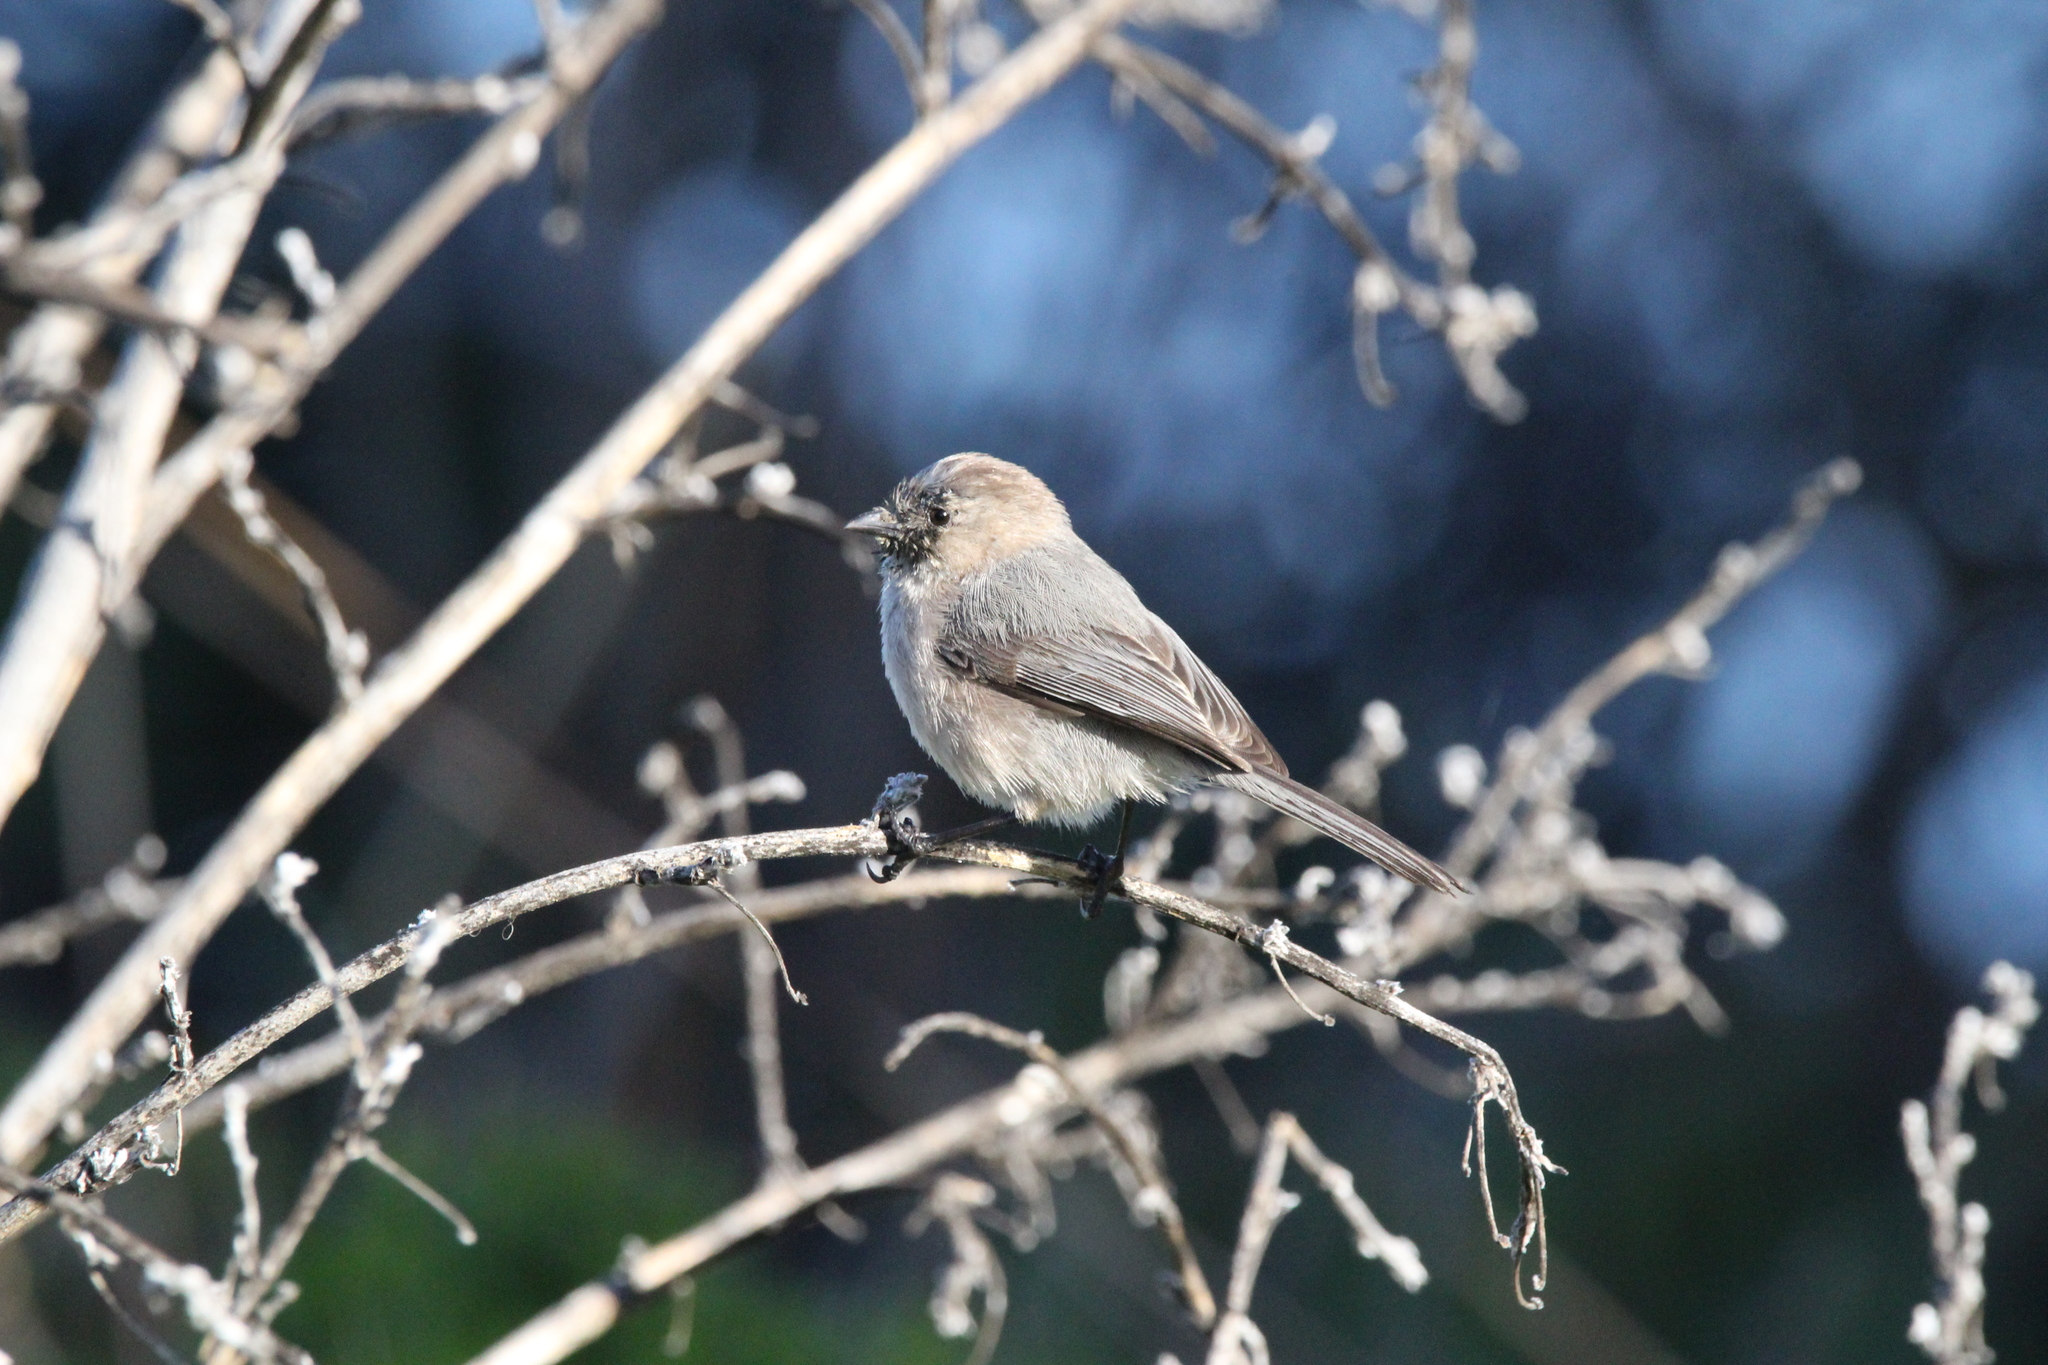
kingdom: Animalia
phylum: Chordata
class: Aves
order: Passeriformes
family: Aegithalidae
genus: Psaltriparus
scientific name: Psaltriparus minimus
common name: American bushtit
